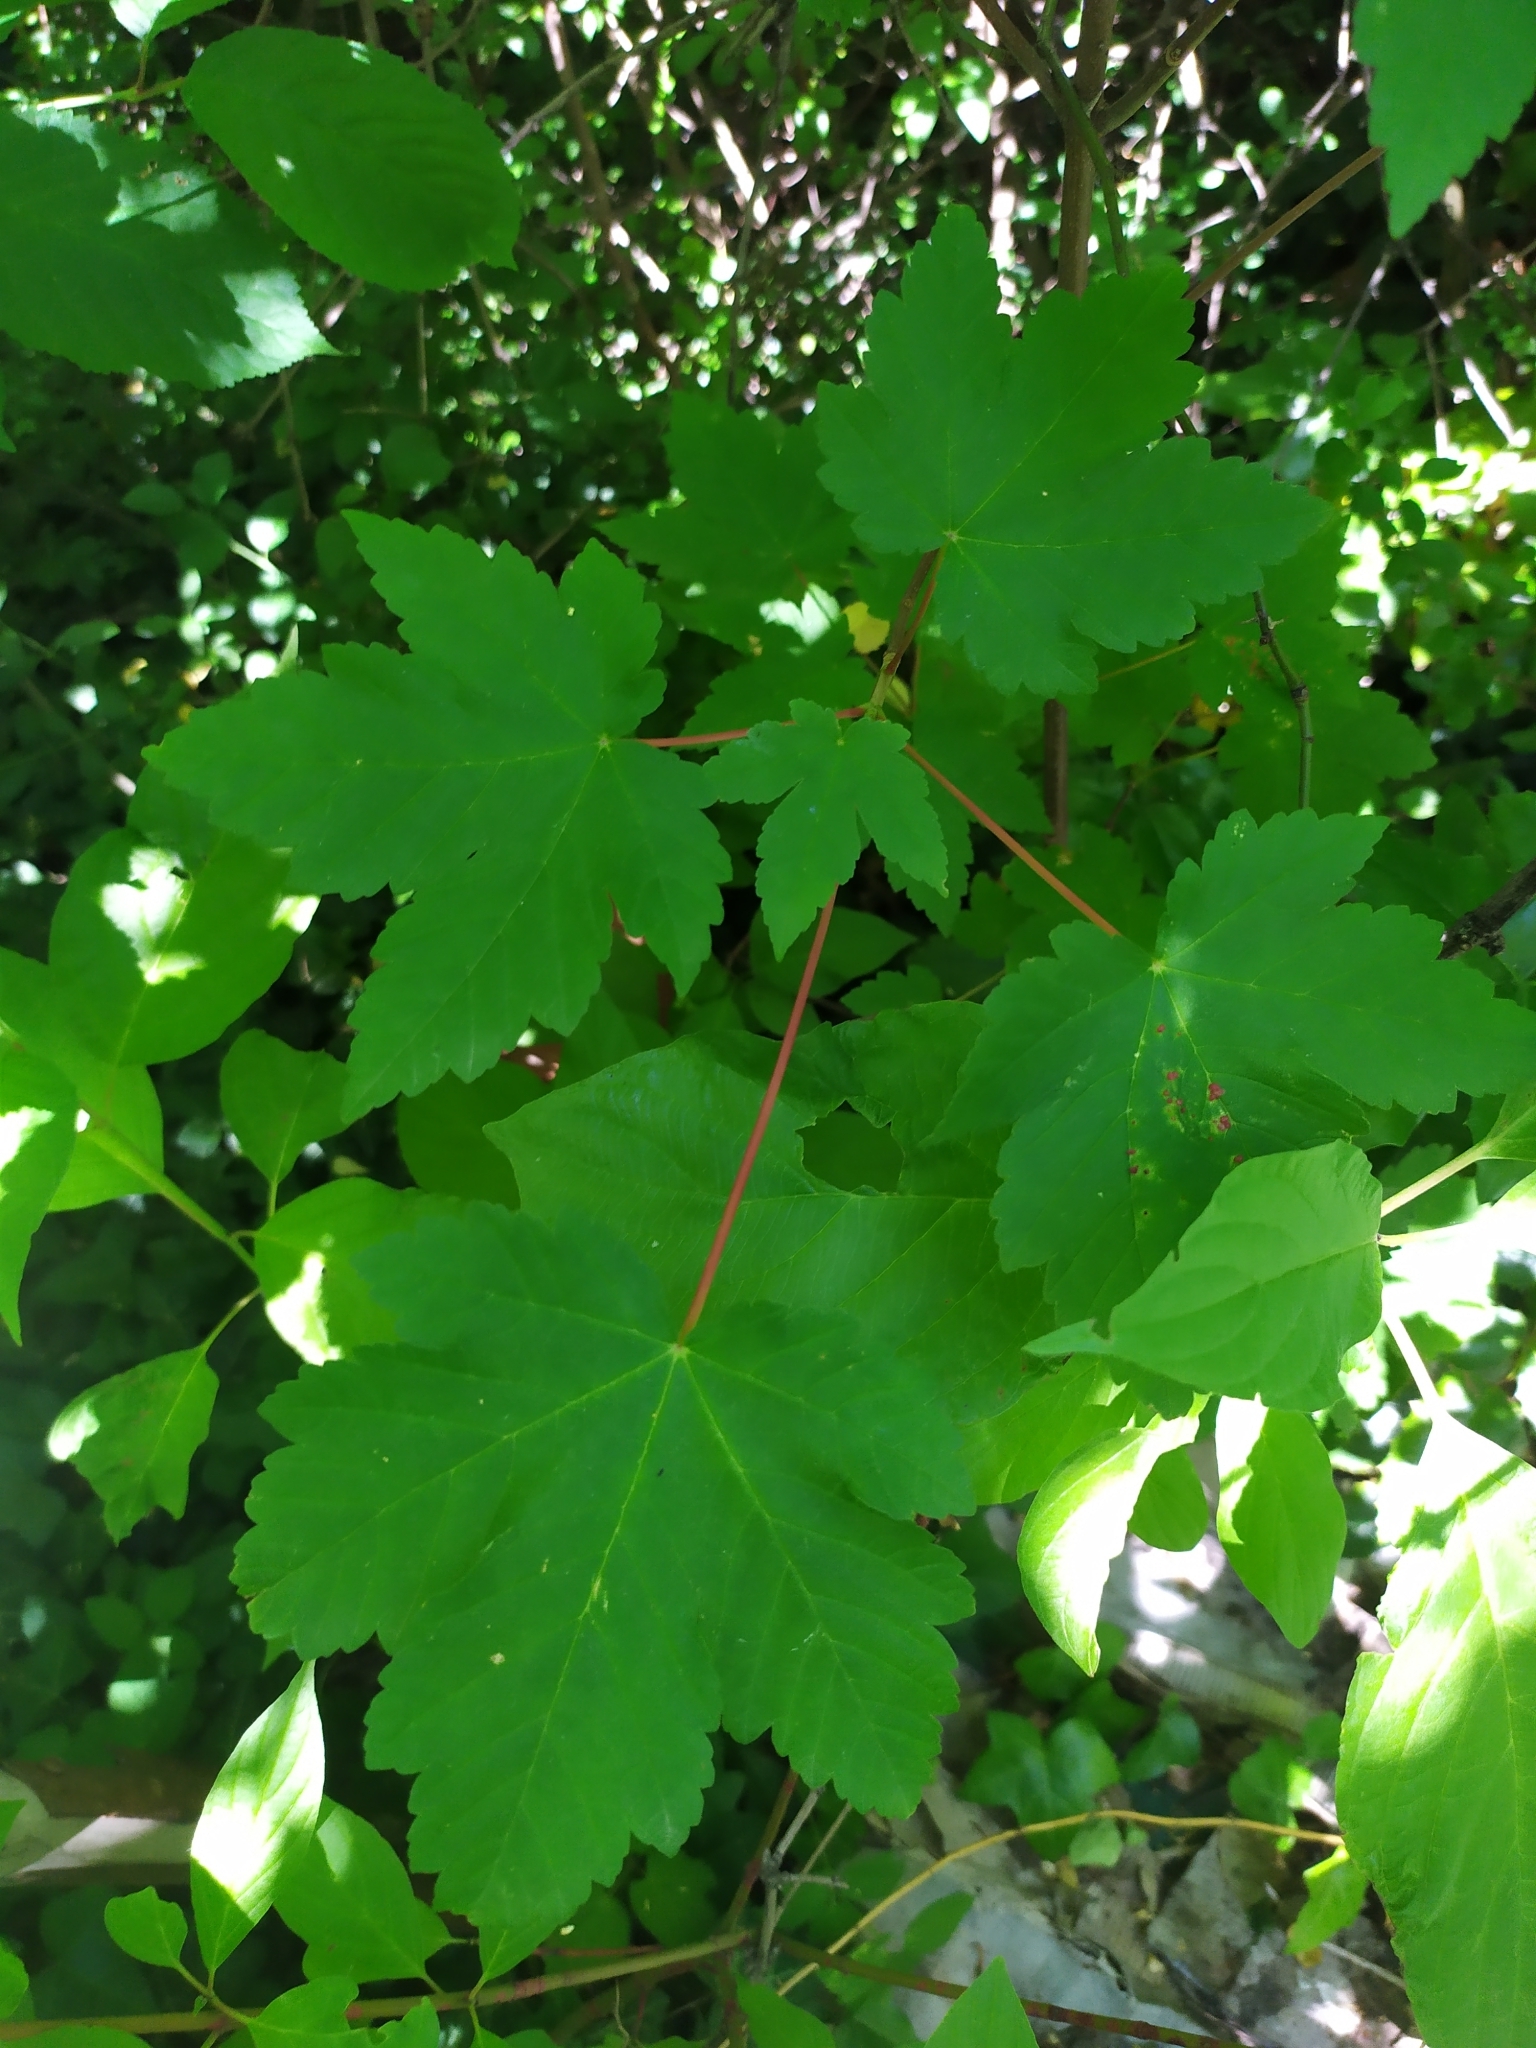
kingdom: Plantae
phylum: Tracheophyta
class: Magnoliopsida
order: Sapindales
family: Sapindaceae
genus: Acer
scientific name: Acer pseudoplatanus
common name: Sycamore
